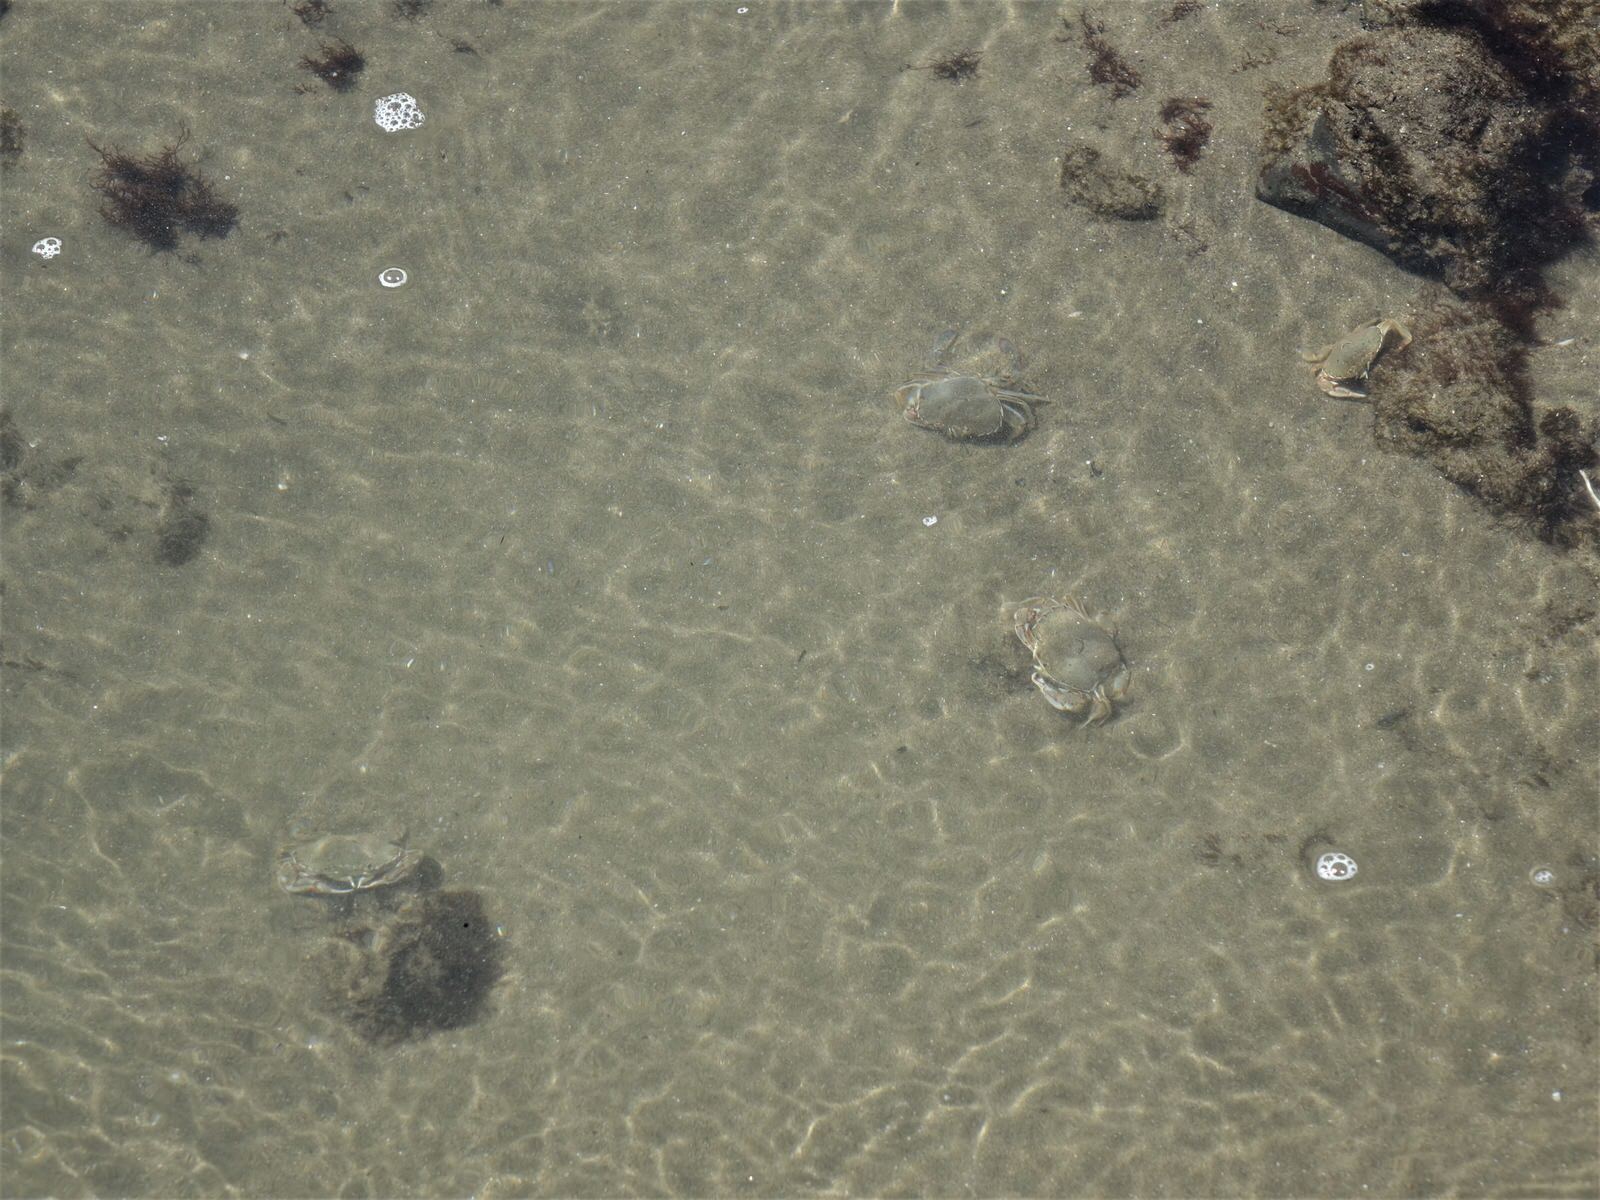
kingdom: Animalia
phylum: Arthropoda
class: Malacostraca
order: Decapoda
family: Ovalipidae
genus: Ovalipes
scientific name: Ovalipes catharus
